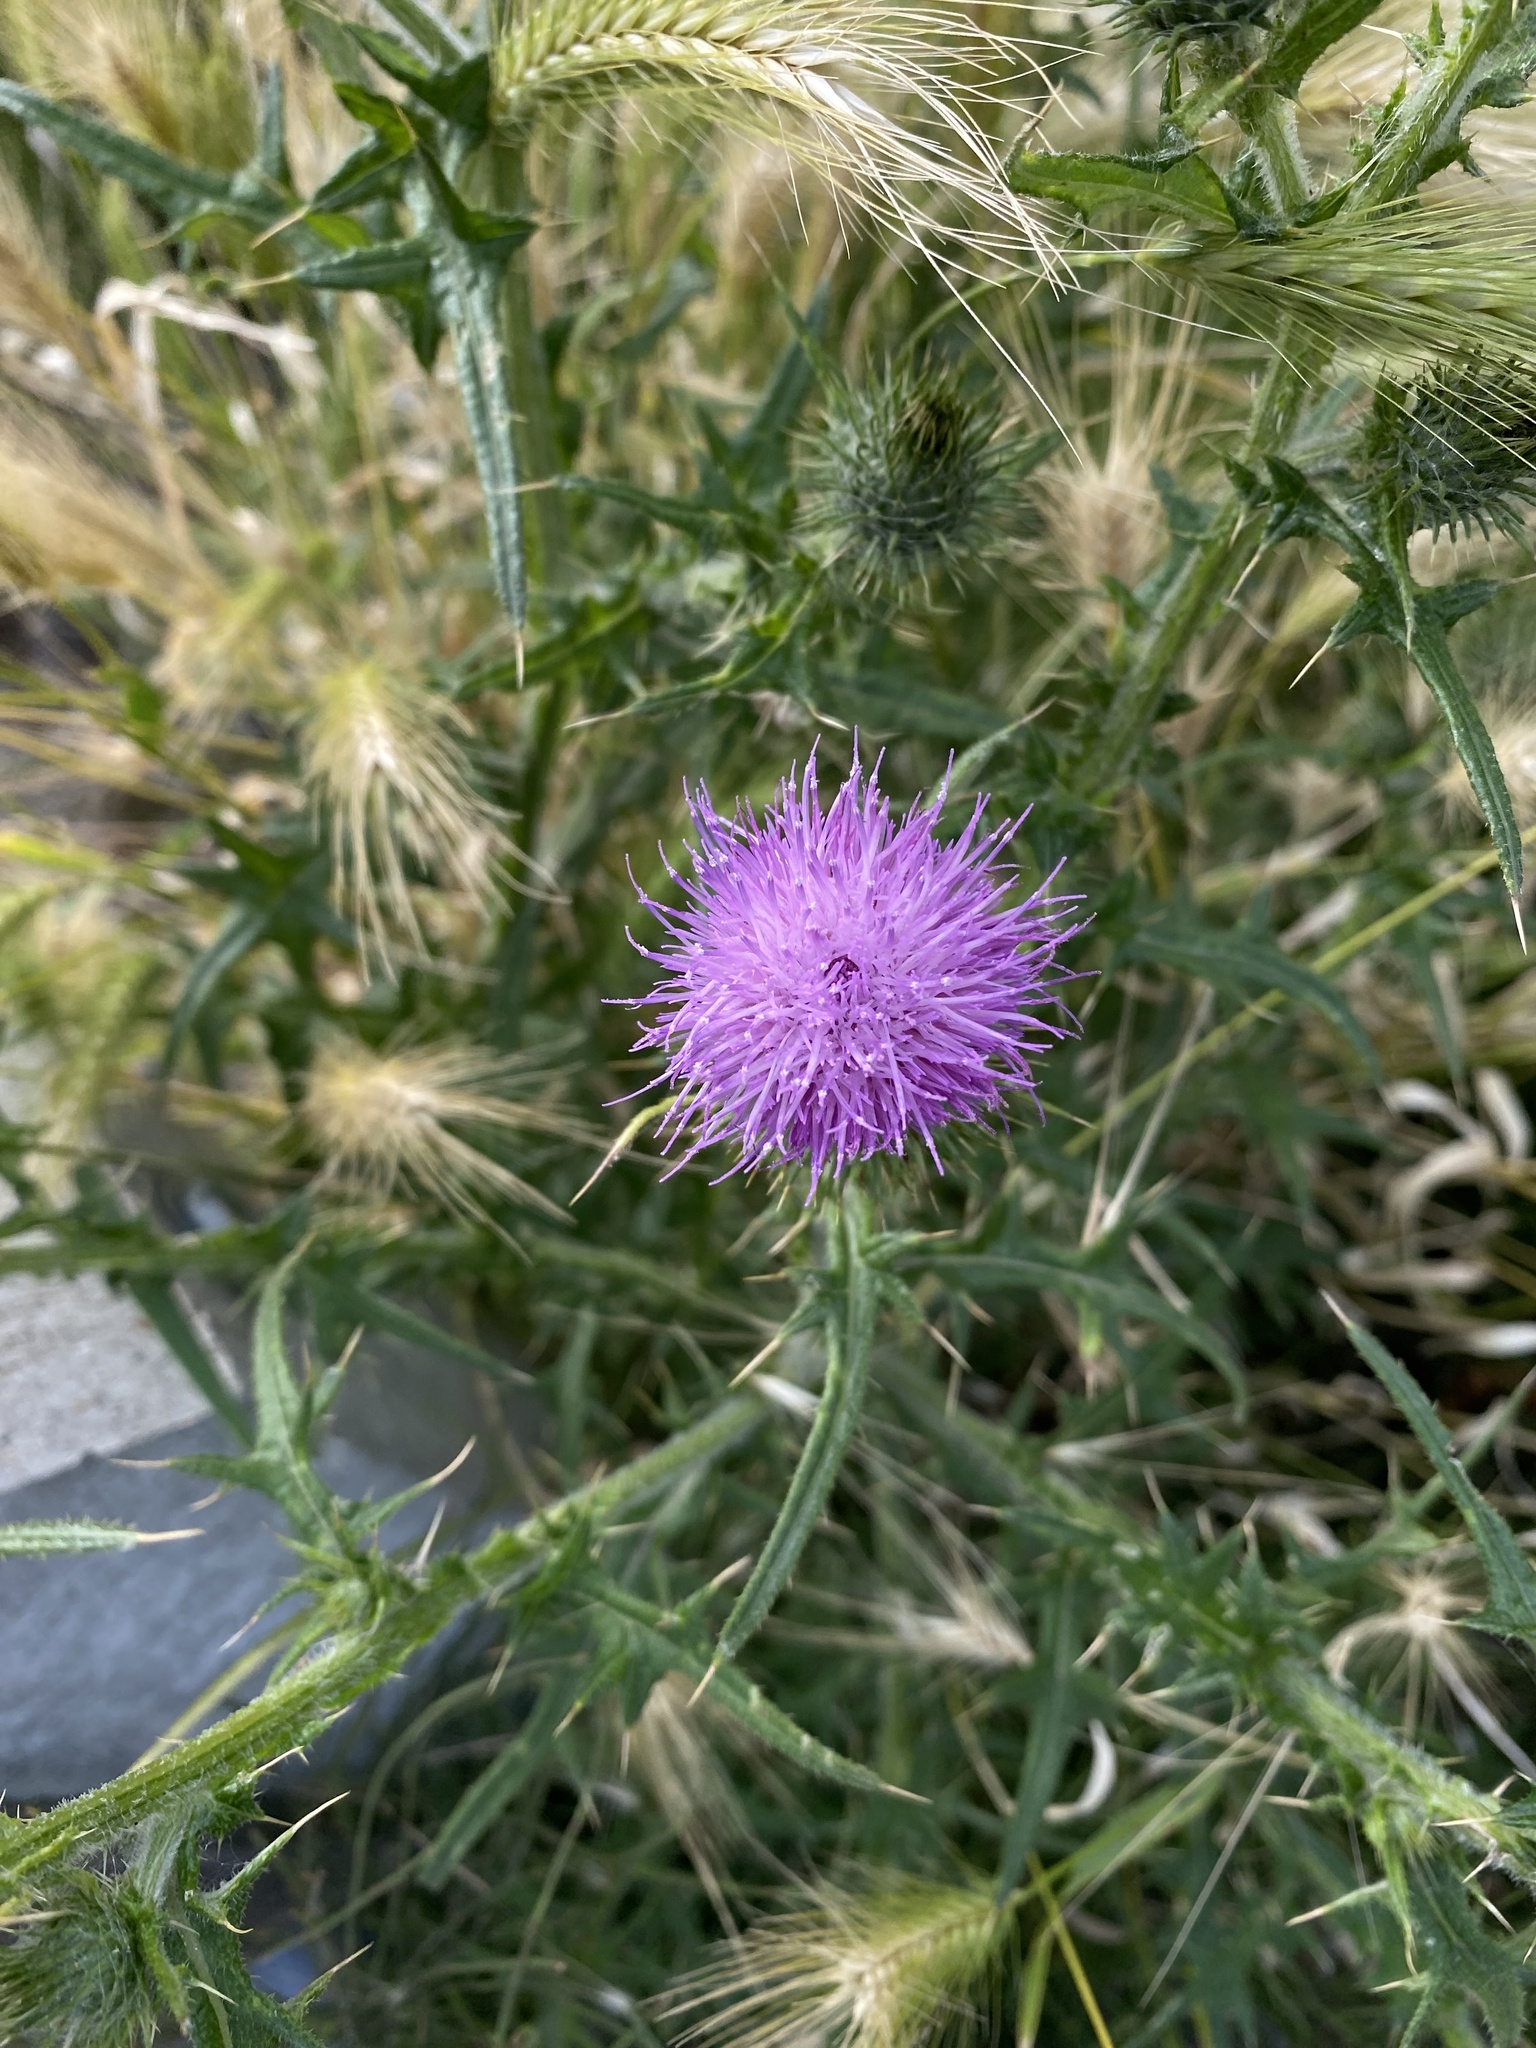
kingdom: Plantae
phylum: Tracheophyta
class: Magnoliopsida
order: Asterales
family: Asteraceae
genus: Cirsium
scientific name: Cirsium vulgare
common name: Bull thistle
